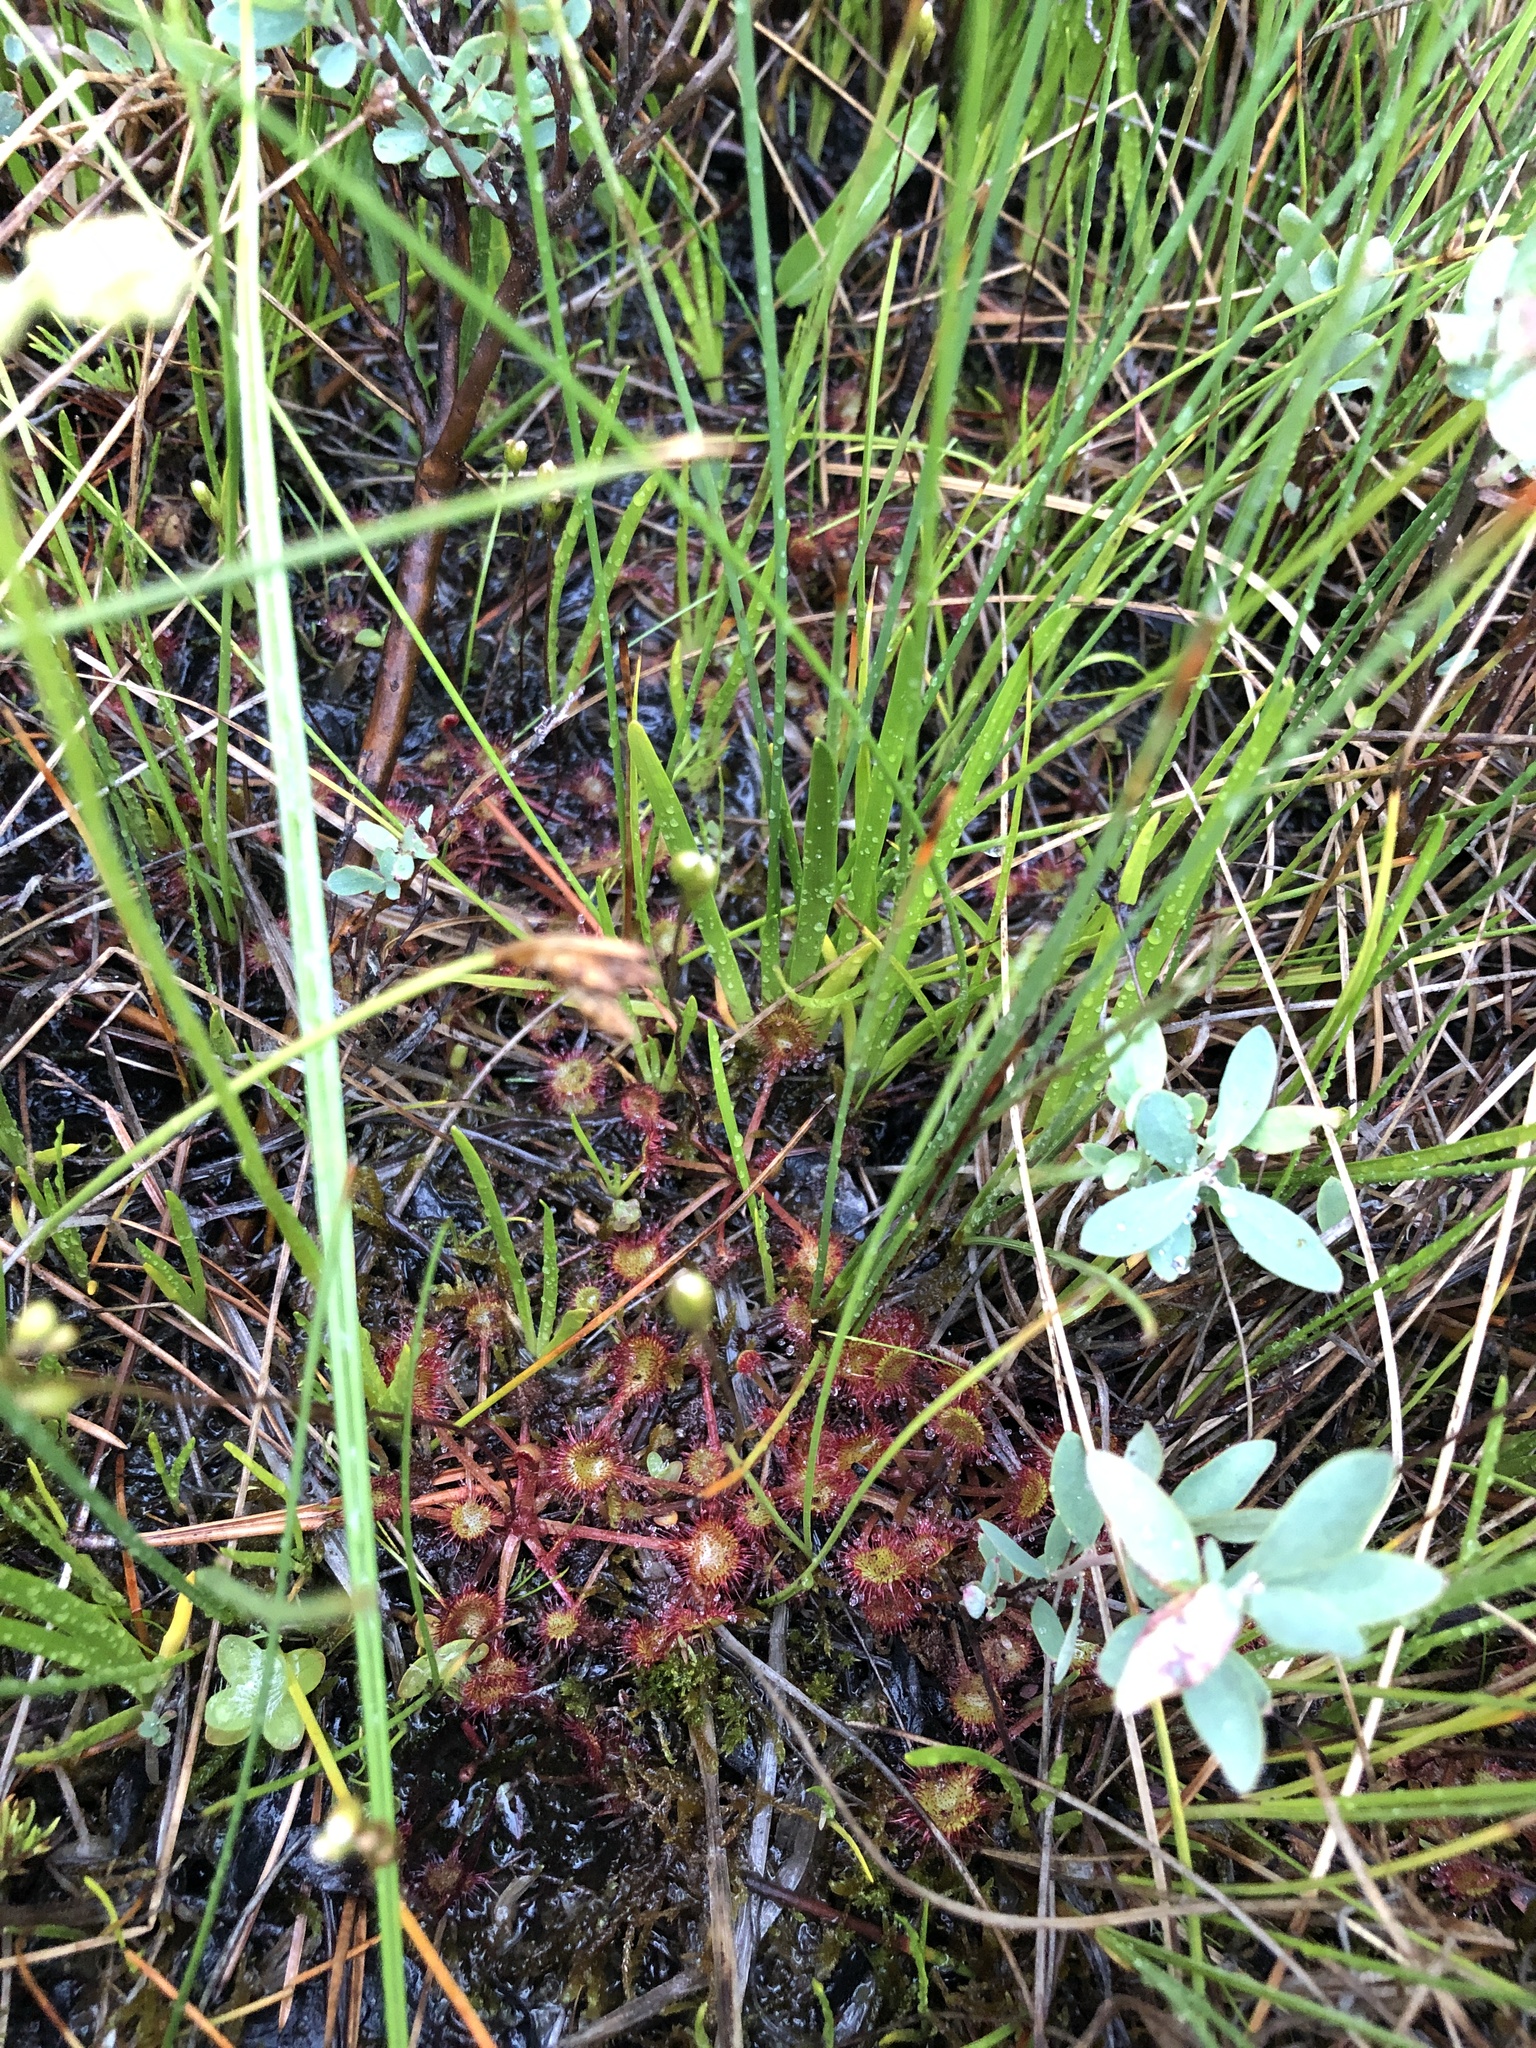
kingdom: Plantae
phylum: Tracheophyta
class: Magnoliopsida
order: Caryophyllales
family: Droseraceae
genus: Drosera
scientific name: Drosera rotundifolia
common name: Round-leaved sundew
